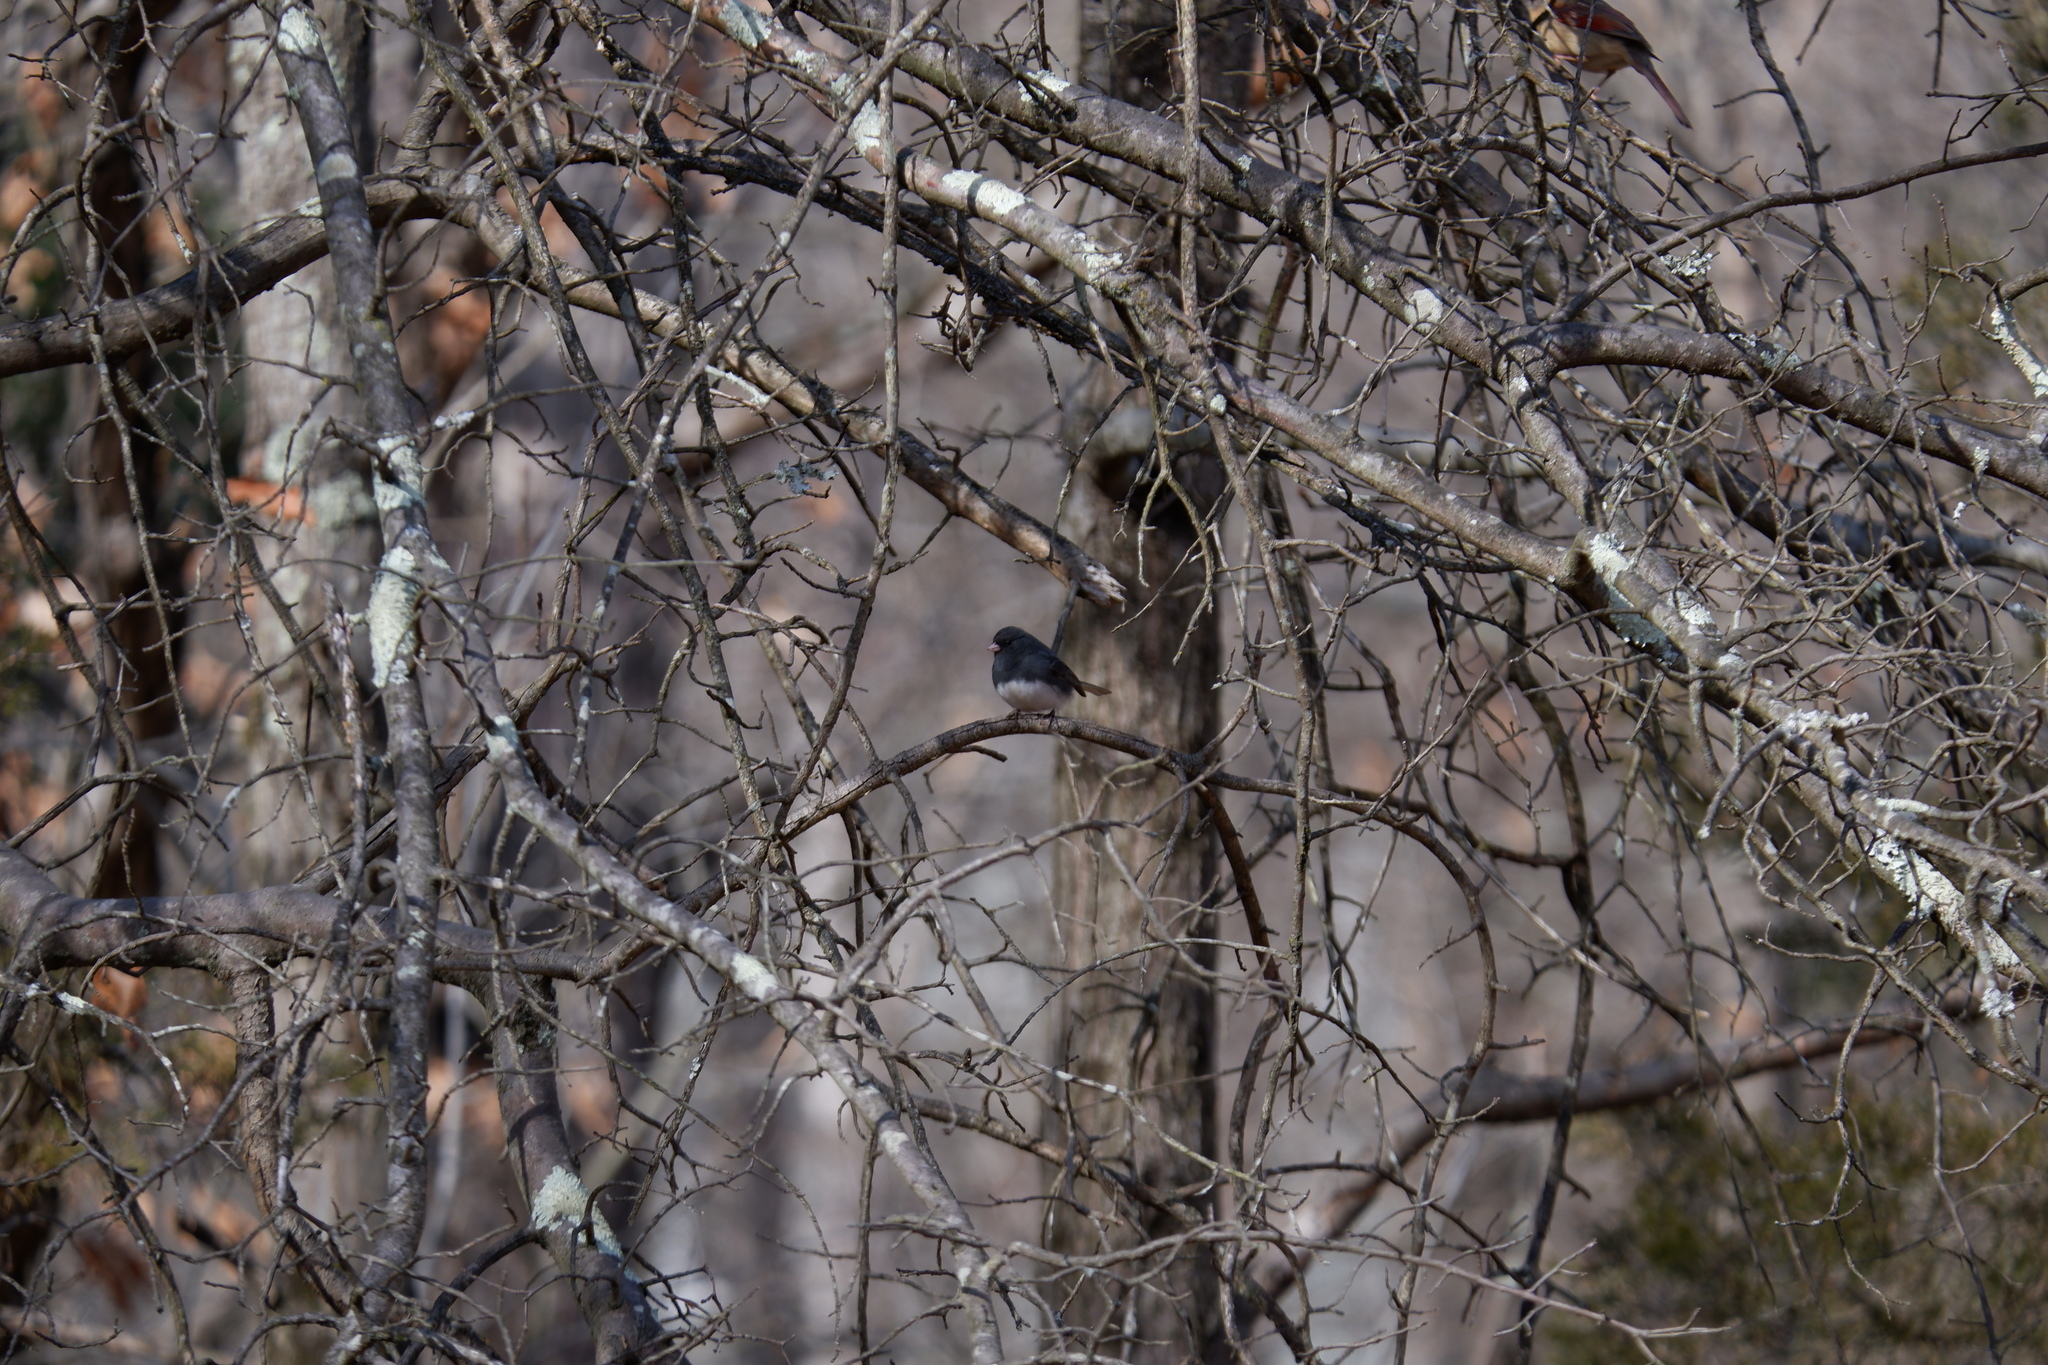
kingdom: Animalia
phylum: Chordata
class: Aves
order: Passeriformes
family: Passerellidae
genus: Junco
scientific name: Junco hyemalis
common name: Dark-eyed junco
